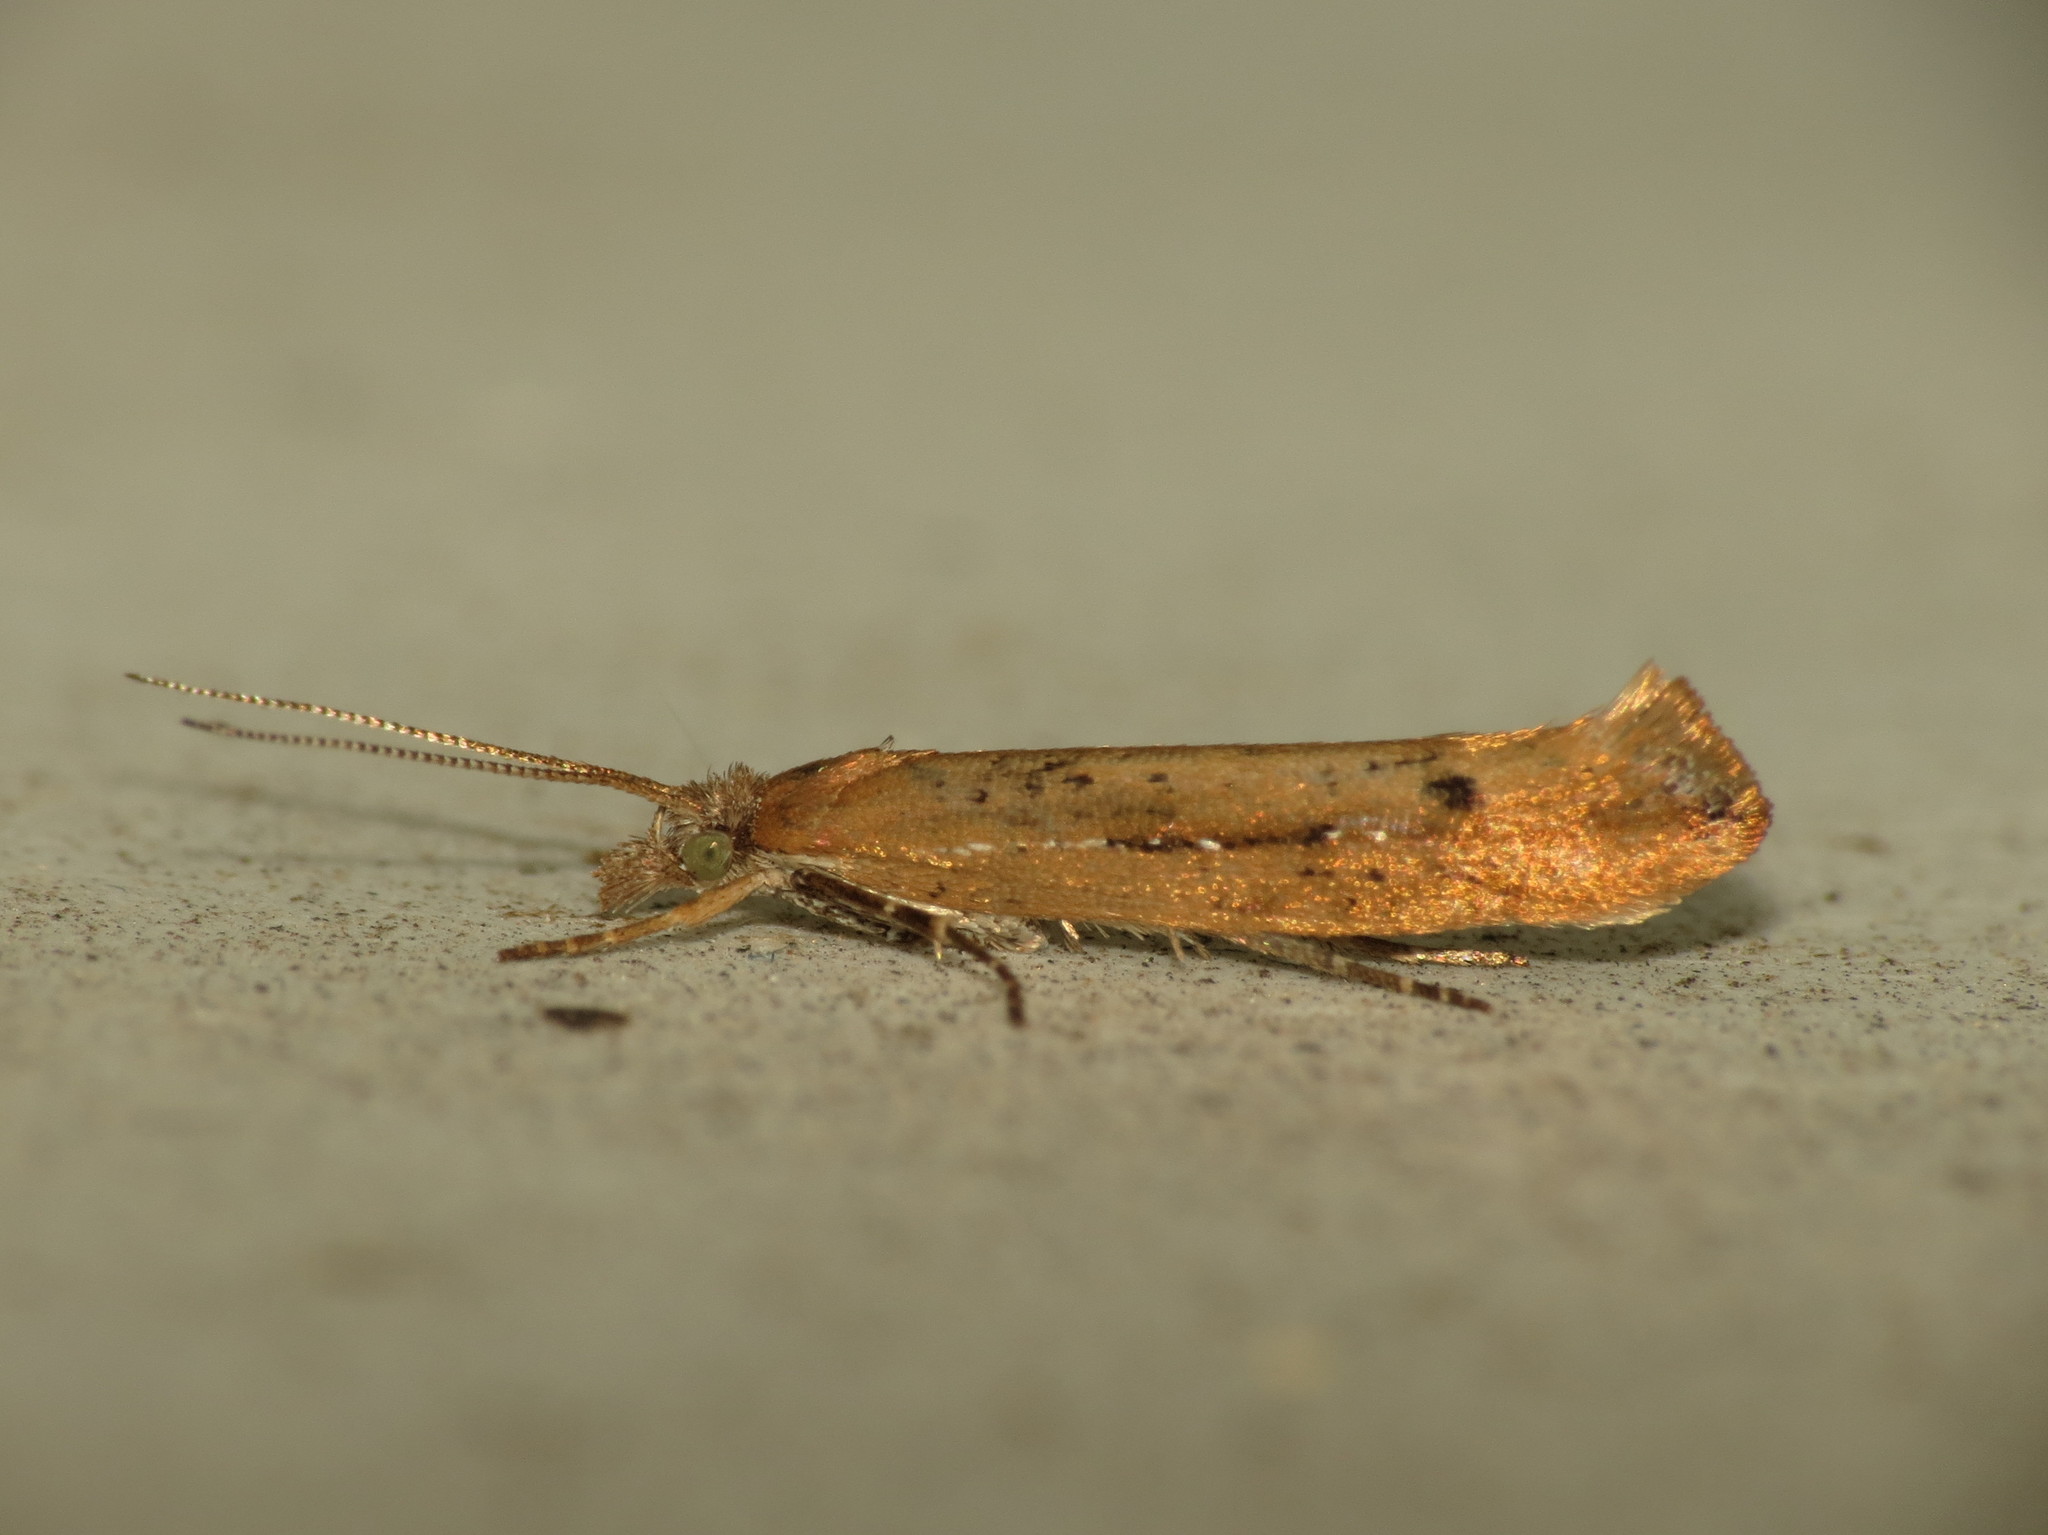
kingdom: Animalia
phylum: Arthropoda
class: Insecta
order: Lepidoptera
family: Plutellidae
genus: Ypsolophus
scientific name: Ypsolophus ustella
